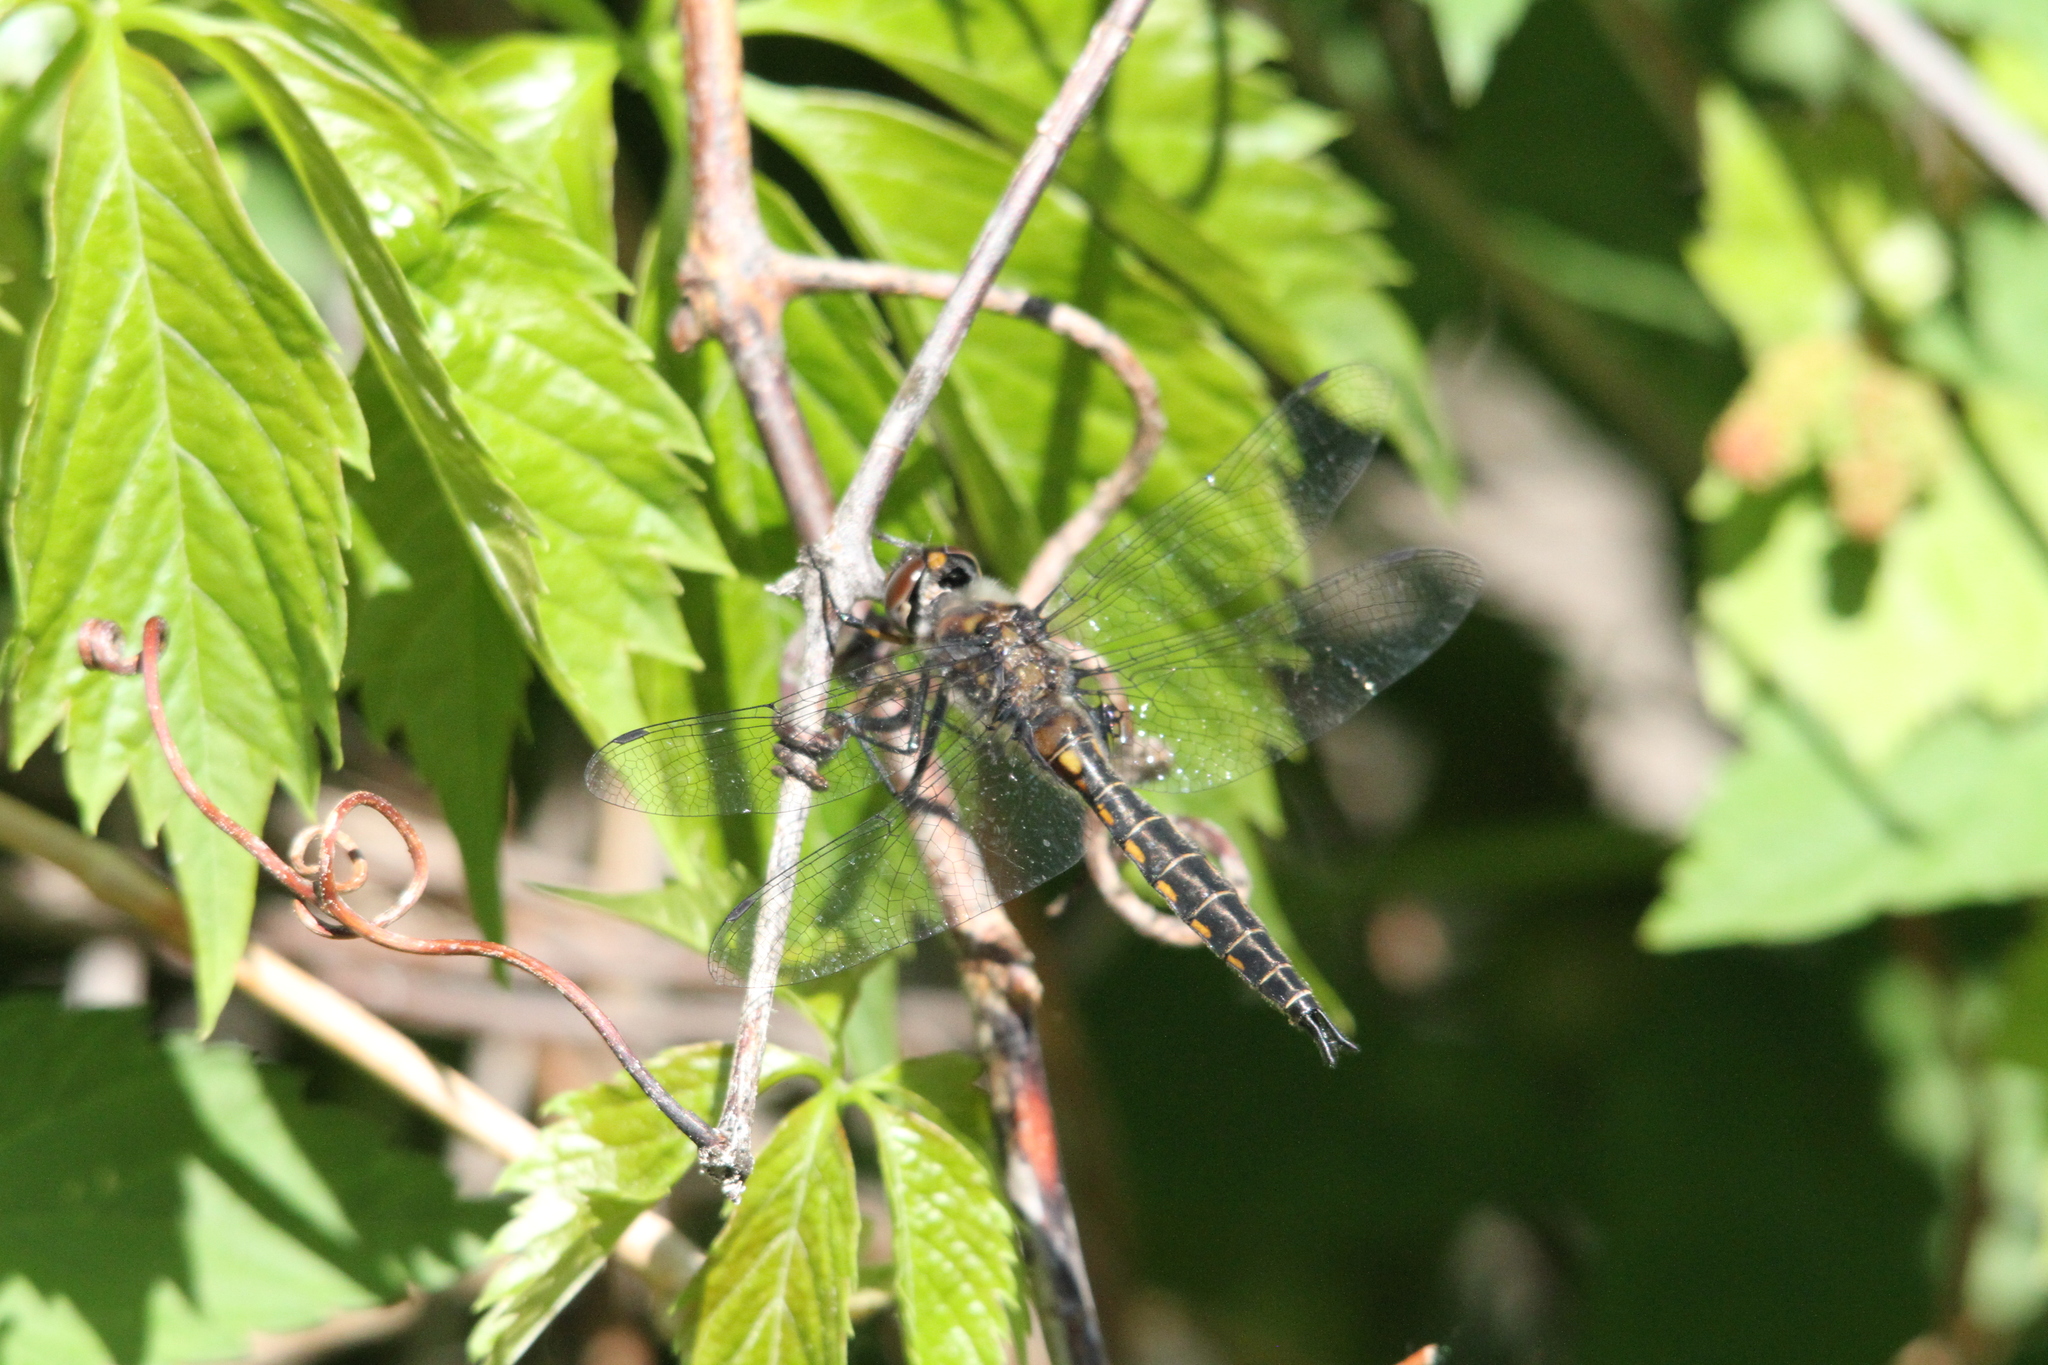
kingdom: Animalia
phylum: Arthropoda
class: Insecta
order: Odonata
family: Corduliidae
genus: Epitheca
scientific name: Epitheca spinigera
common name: Spiny baskettail
